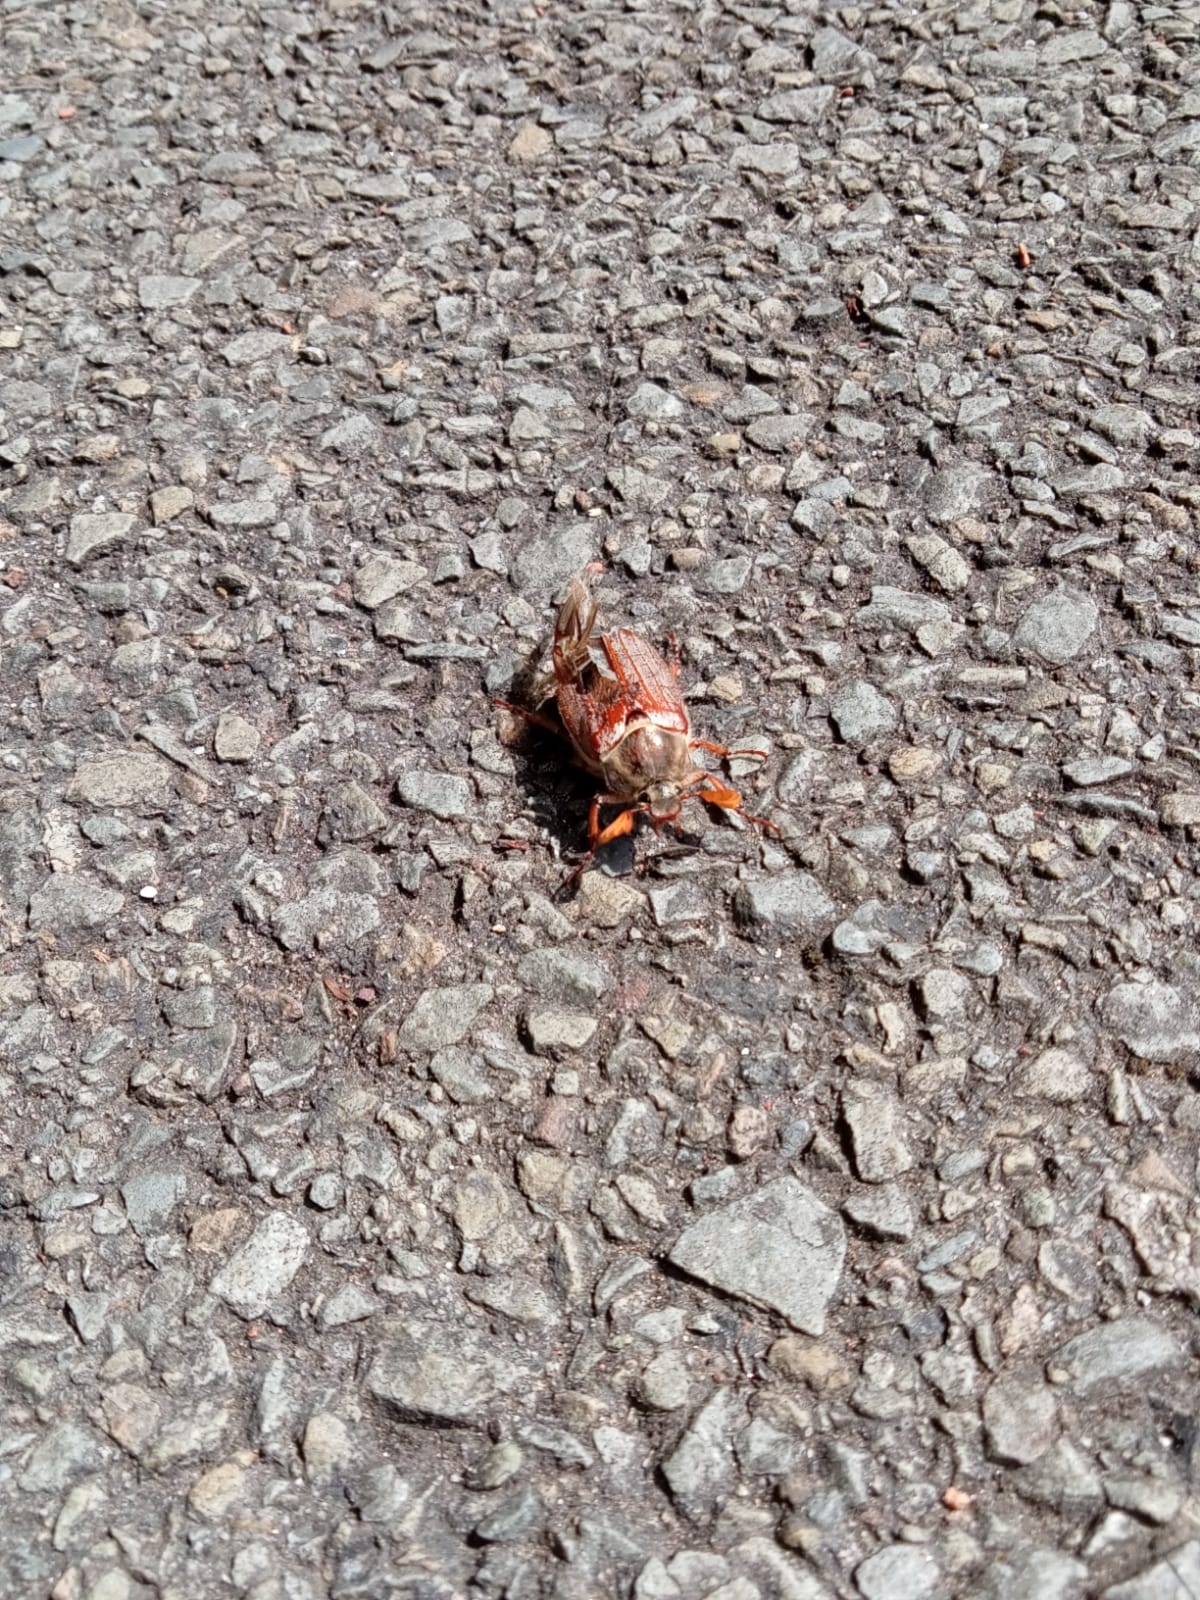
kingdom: Animalia
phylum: Arthropoda
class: Insecta
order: Coleoptera
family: Scarabaeidae
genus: Melolontha
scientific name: Melolontha melolontha
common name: Cockchafer maybeetle
